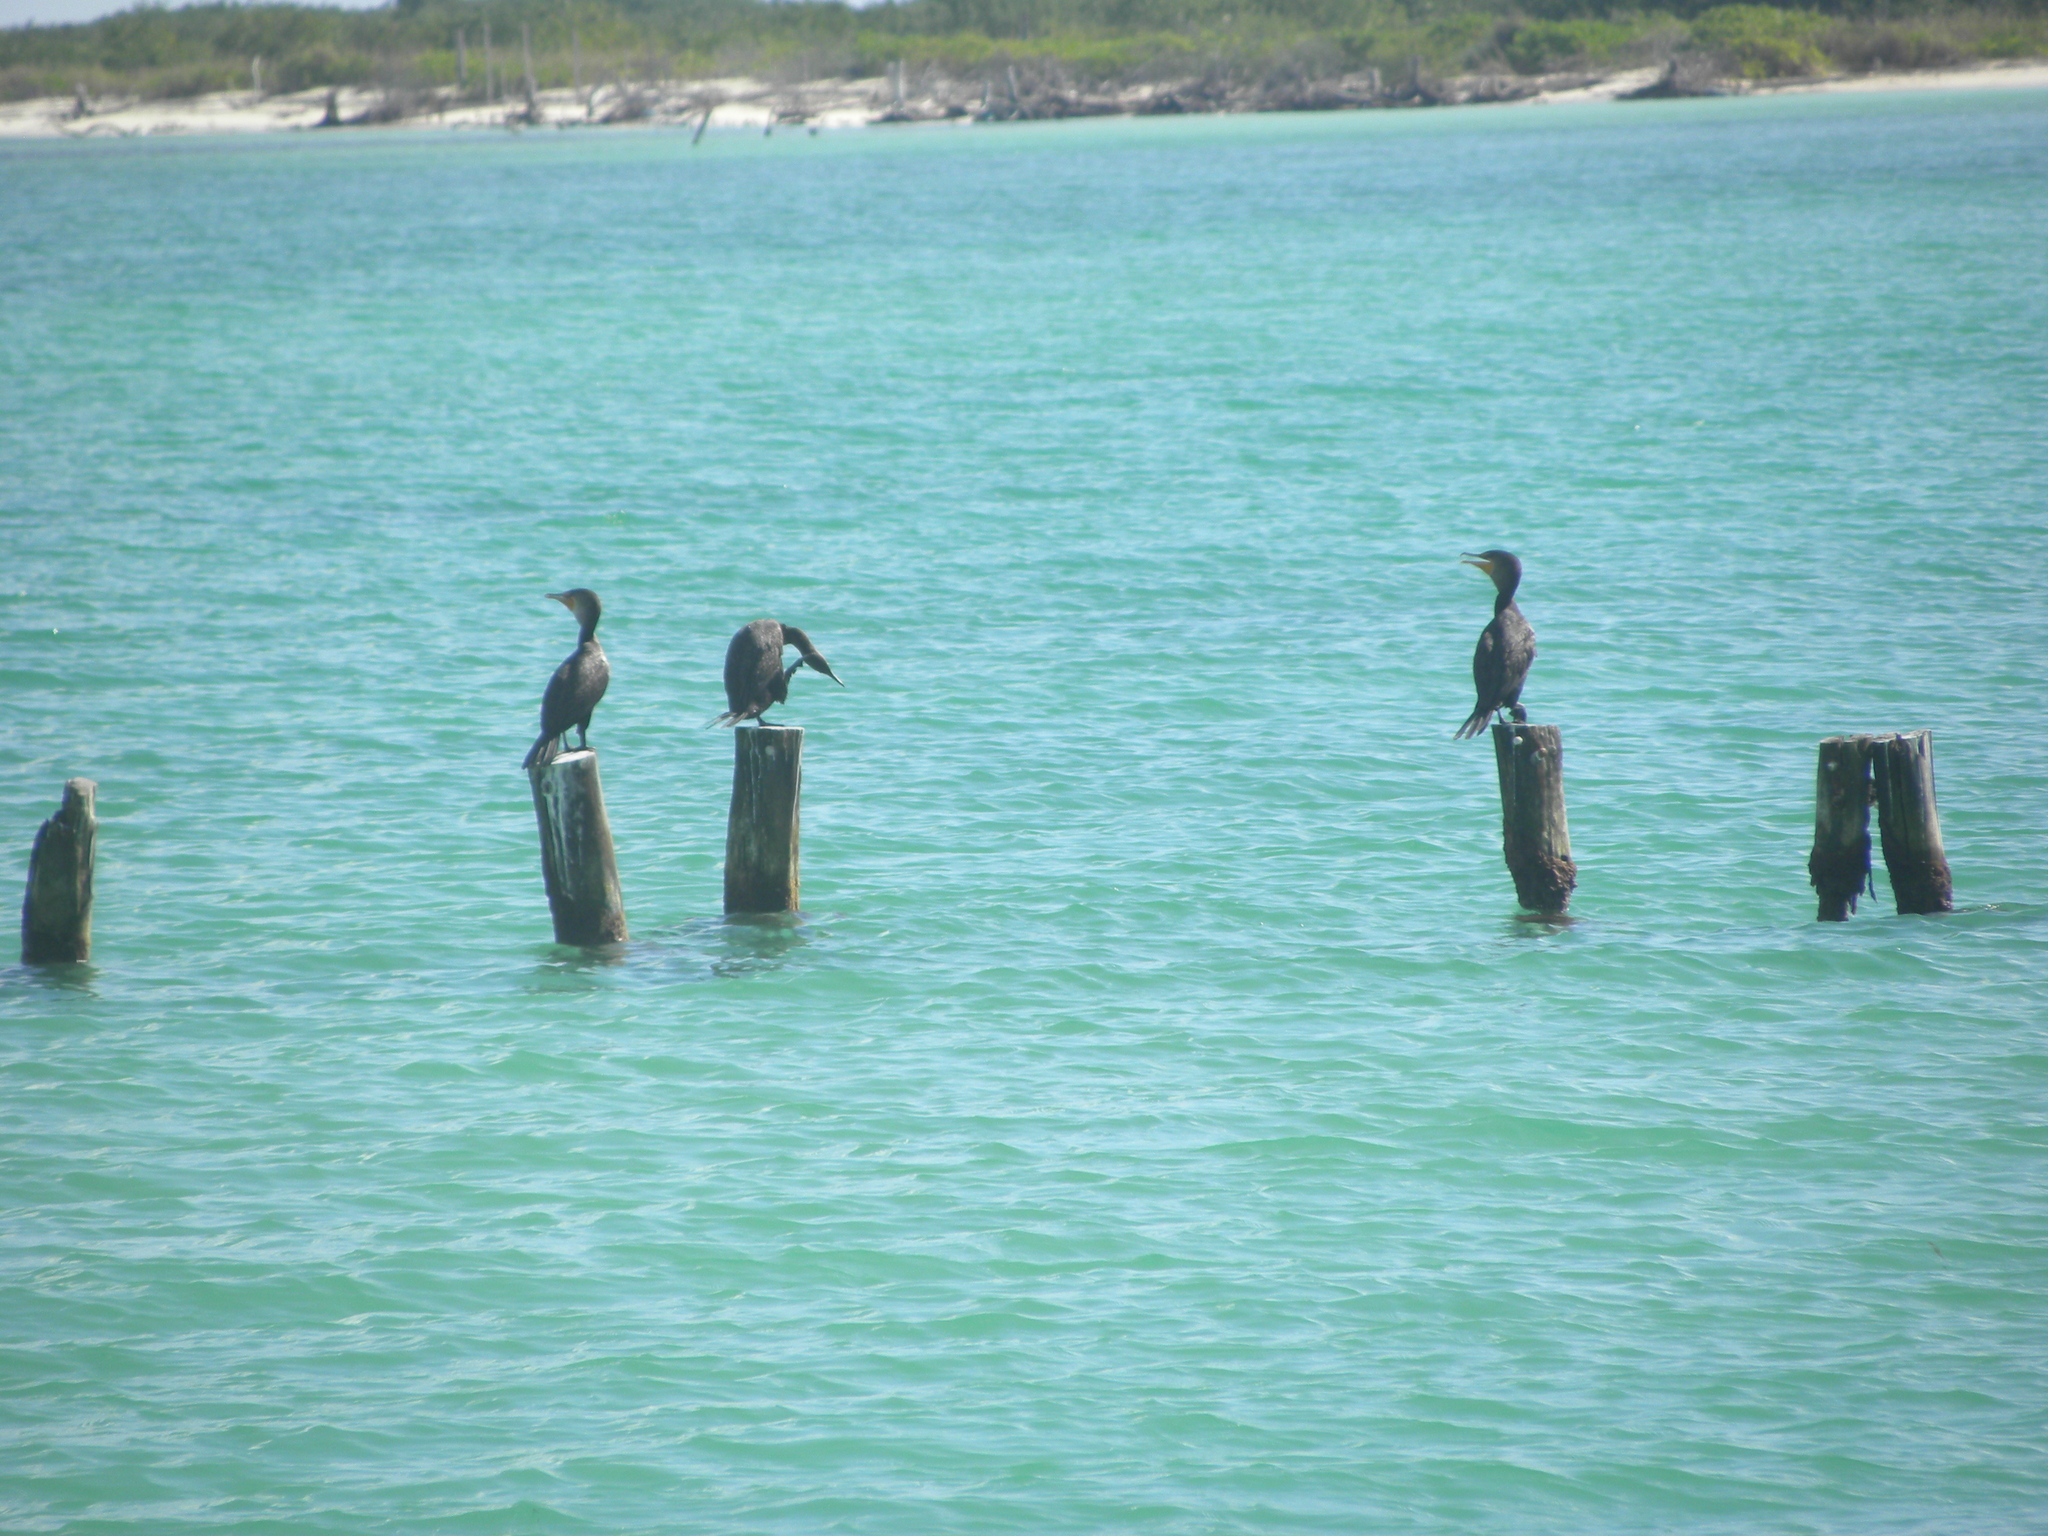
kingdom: Animalia
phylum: Chordata
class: Aves
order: Suliformes
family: Phalacrocoracidae
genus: Phalacrocorax
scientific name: Phalacrocorax auritus
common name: Double-crested cormorant
